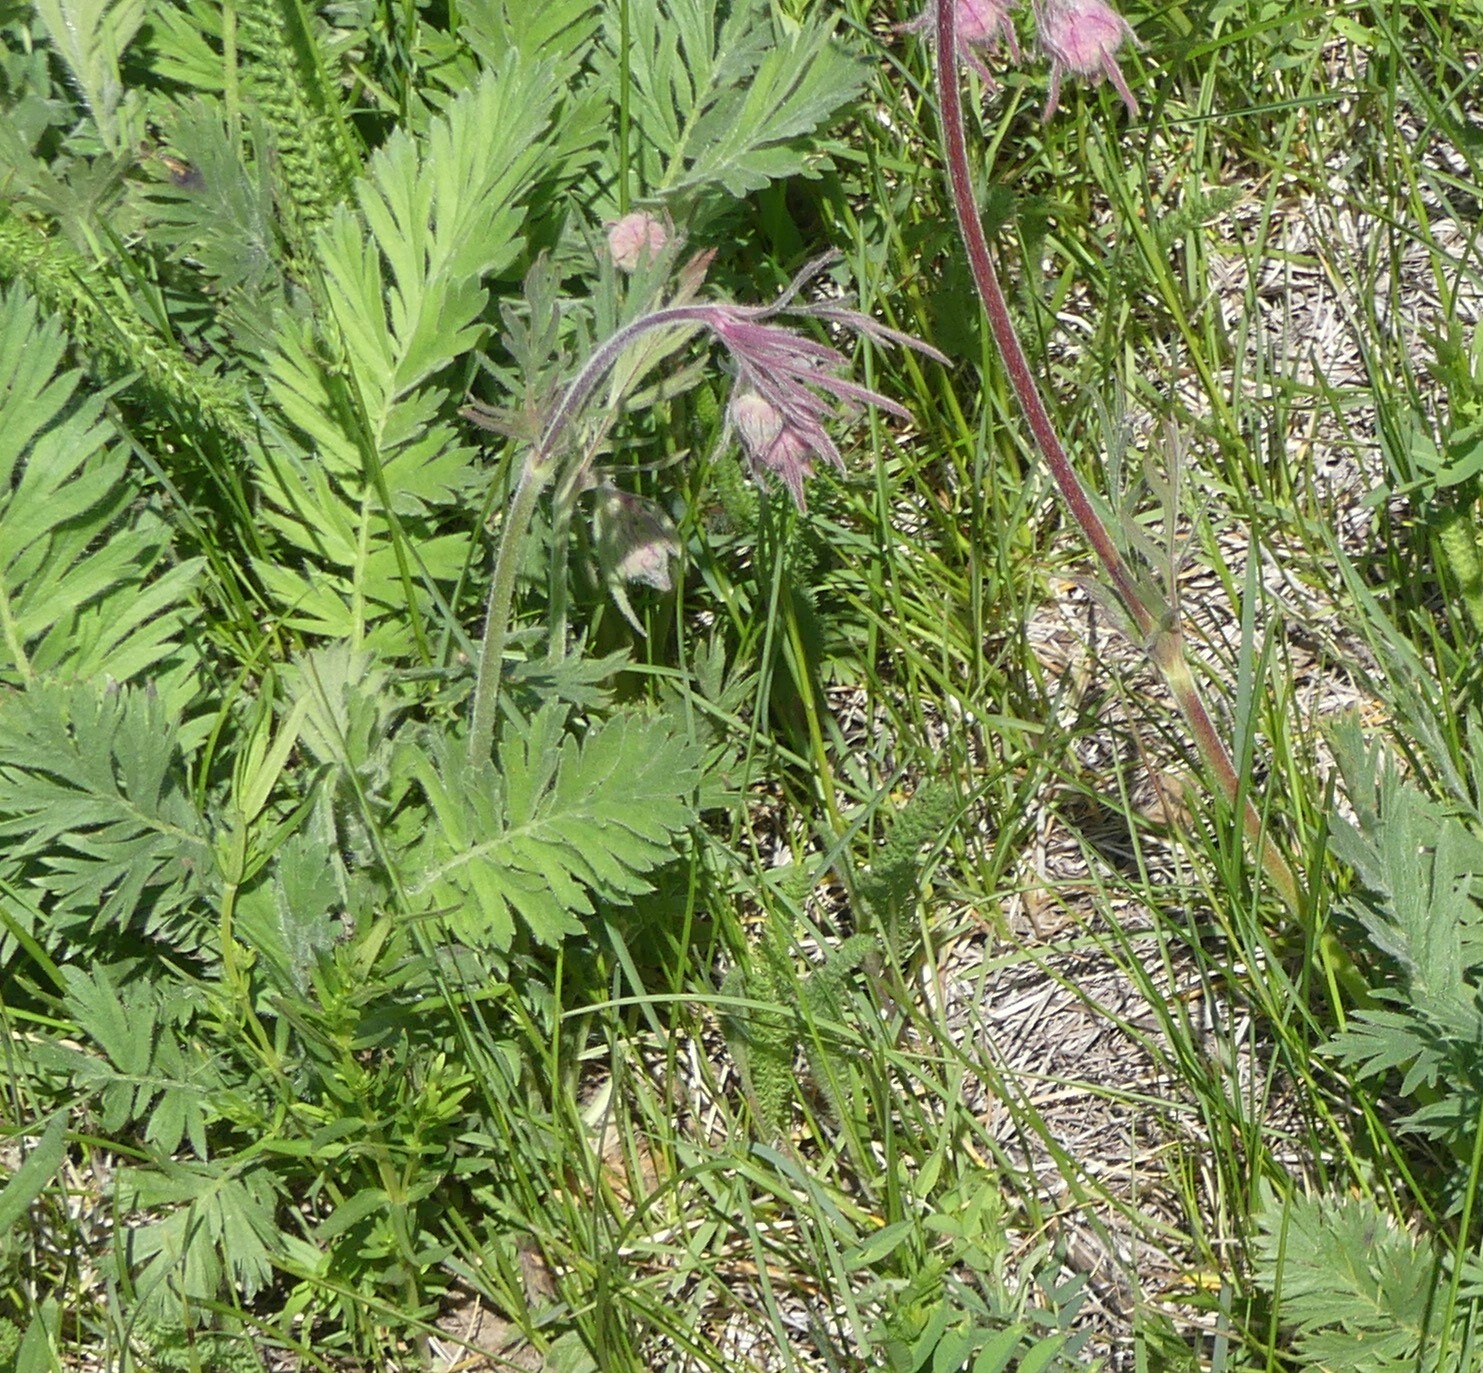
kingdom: Plantae
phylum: Tracheophyta
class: Magnoliopsida
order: Rosales
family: Rosaceae
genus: Geum
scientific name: Geum triflorum
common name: Old man's whiskers
